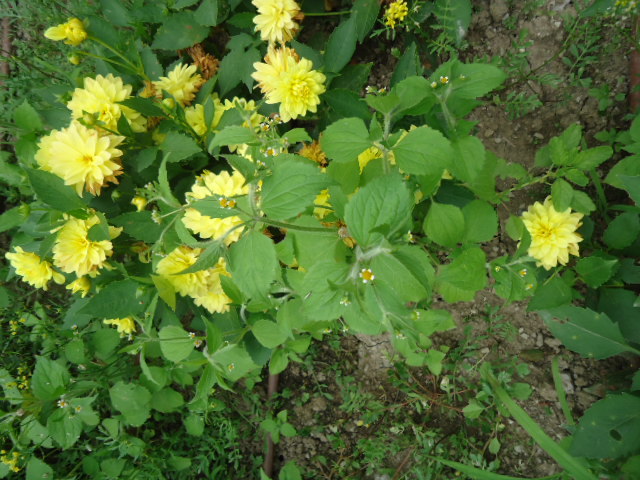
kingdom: Plantae
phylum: Tracheophyta
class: Magnoliopsida
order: Asterales
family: Asteraceae
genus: Galinsoga
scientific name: Galinsoga quadriradiata
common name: Shaggy soldier
